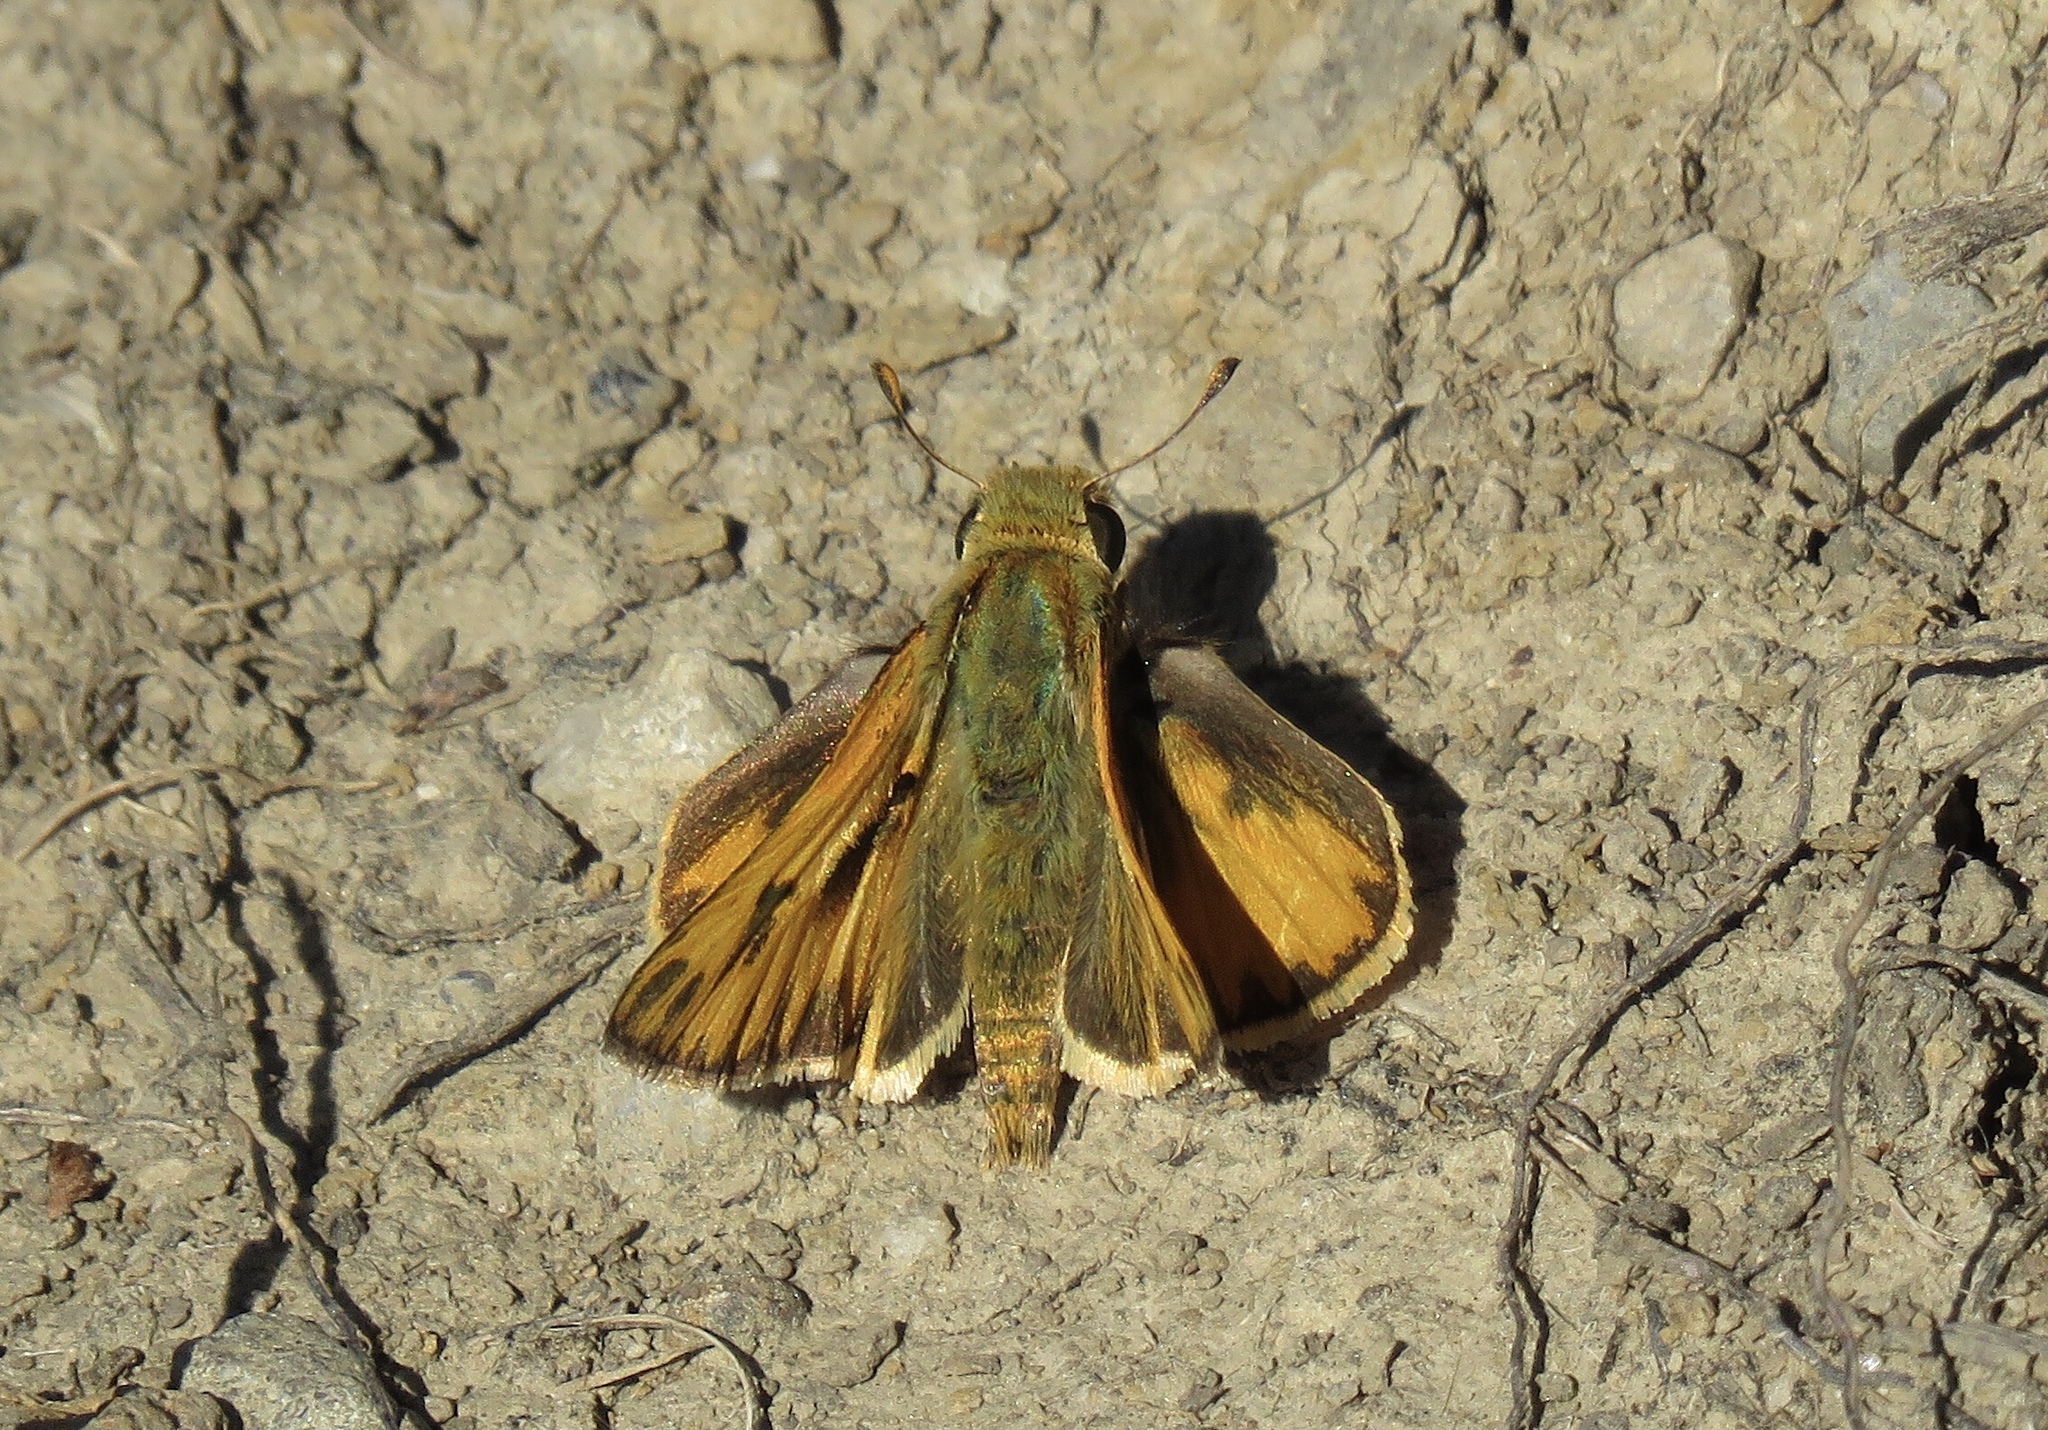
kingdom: Animalia
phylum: Arthropoda
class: Insecta
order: Lepidoptera
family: Hesperiidae
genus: Hylephila
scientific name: Hylephila phyleus
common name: Fiery skipper
